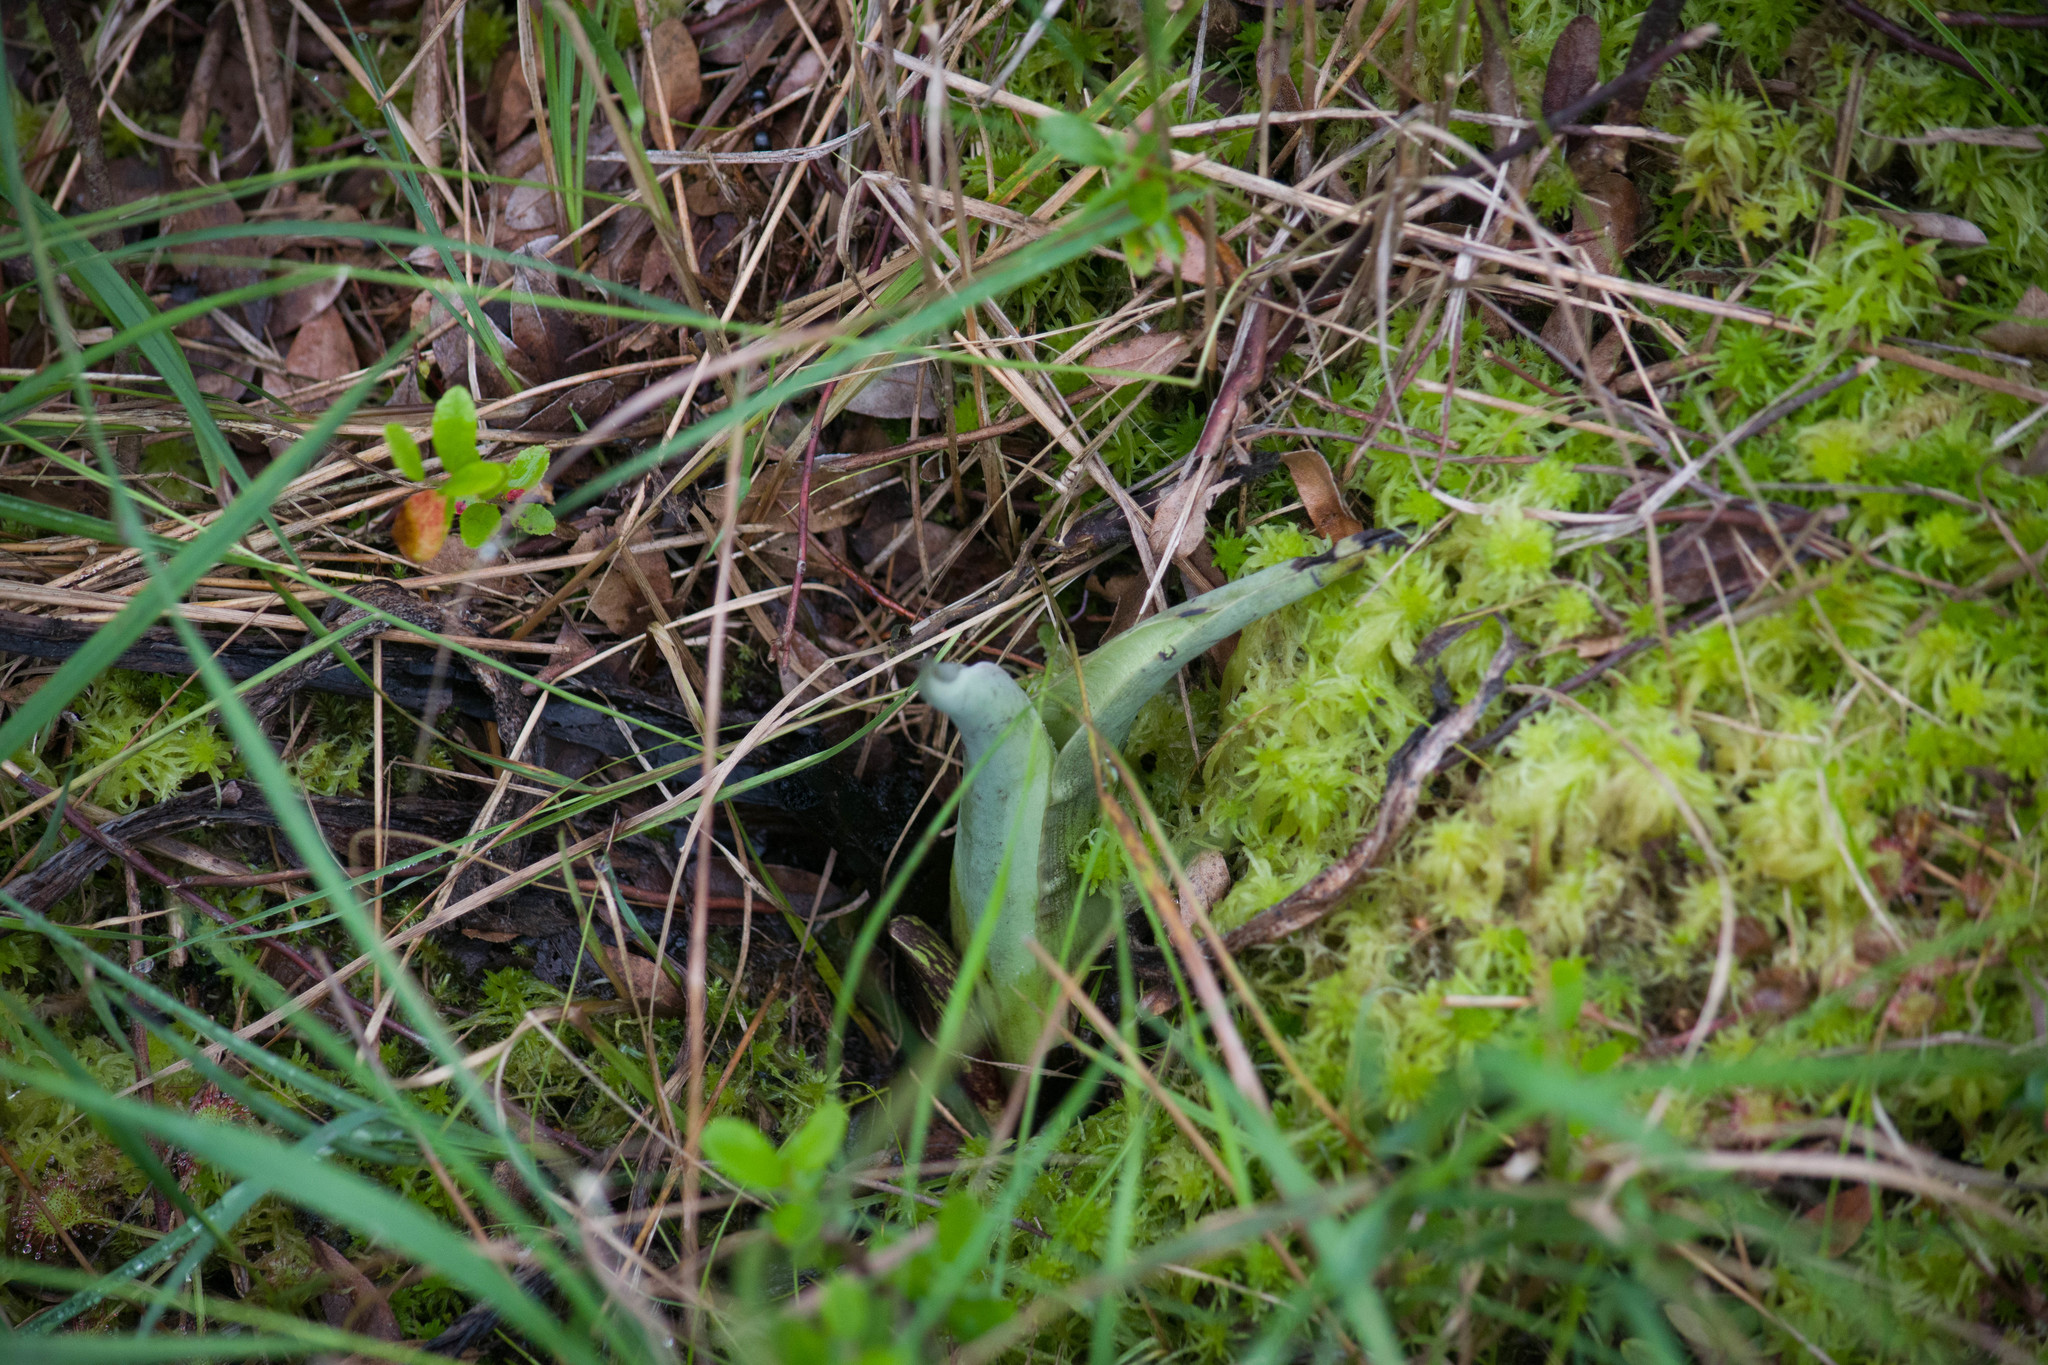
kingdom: Plantae
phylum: Tracheophyta
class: Liliopsida
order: Alismatales
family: Araceae
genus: Symplocarpus
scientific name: Symplocarpus foetidus
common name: Eastern skunk cabbage
